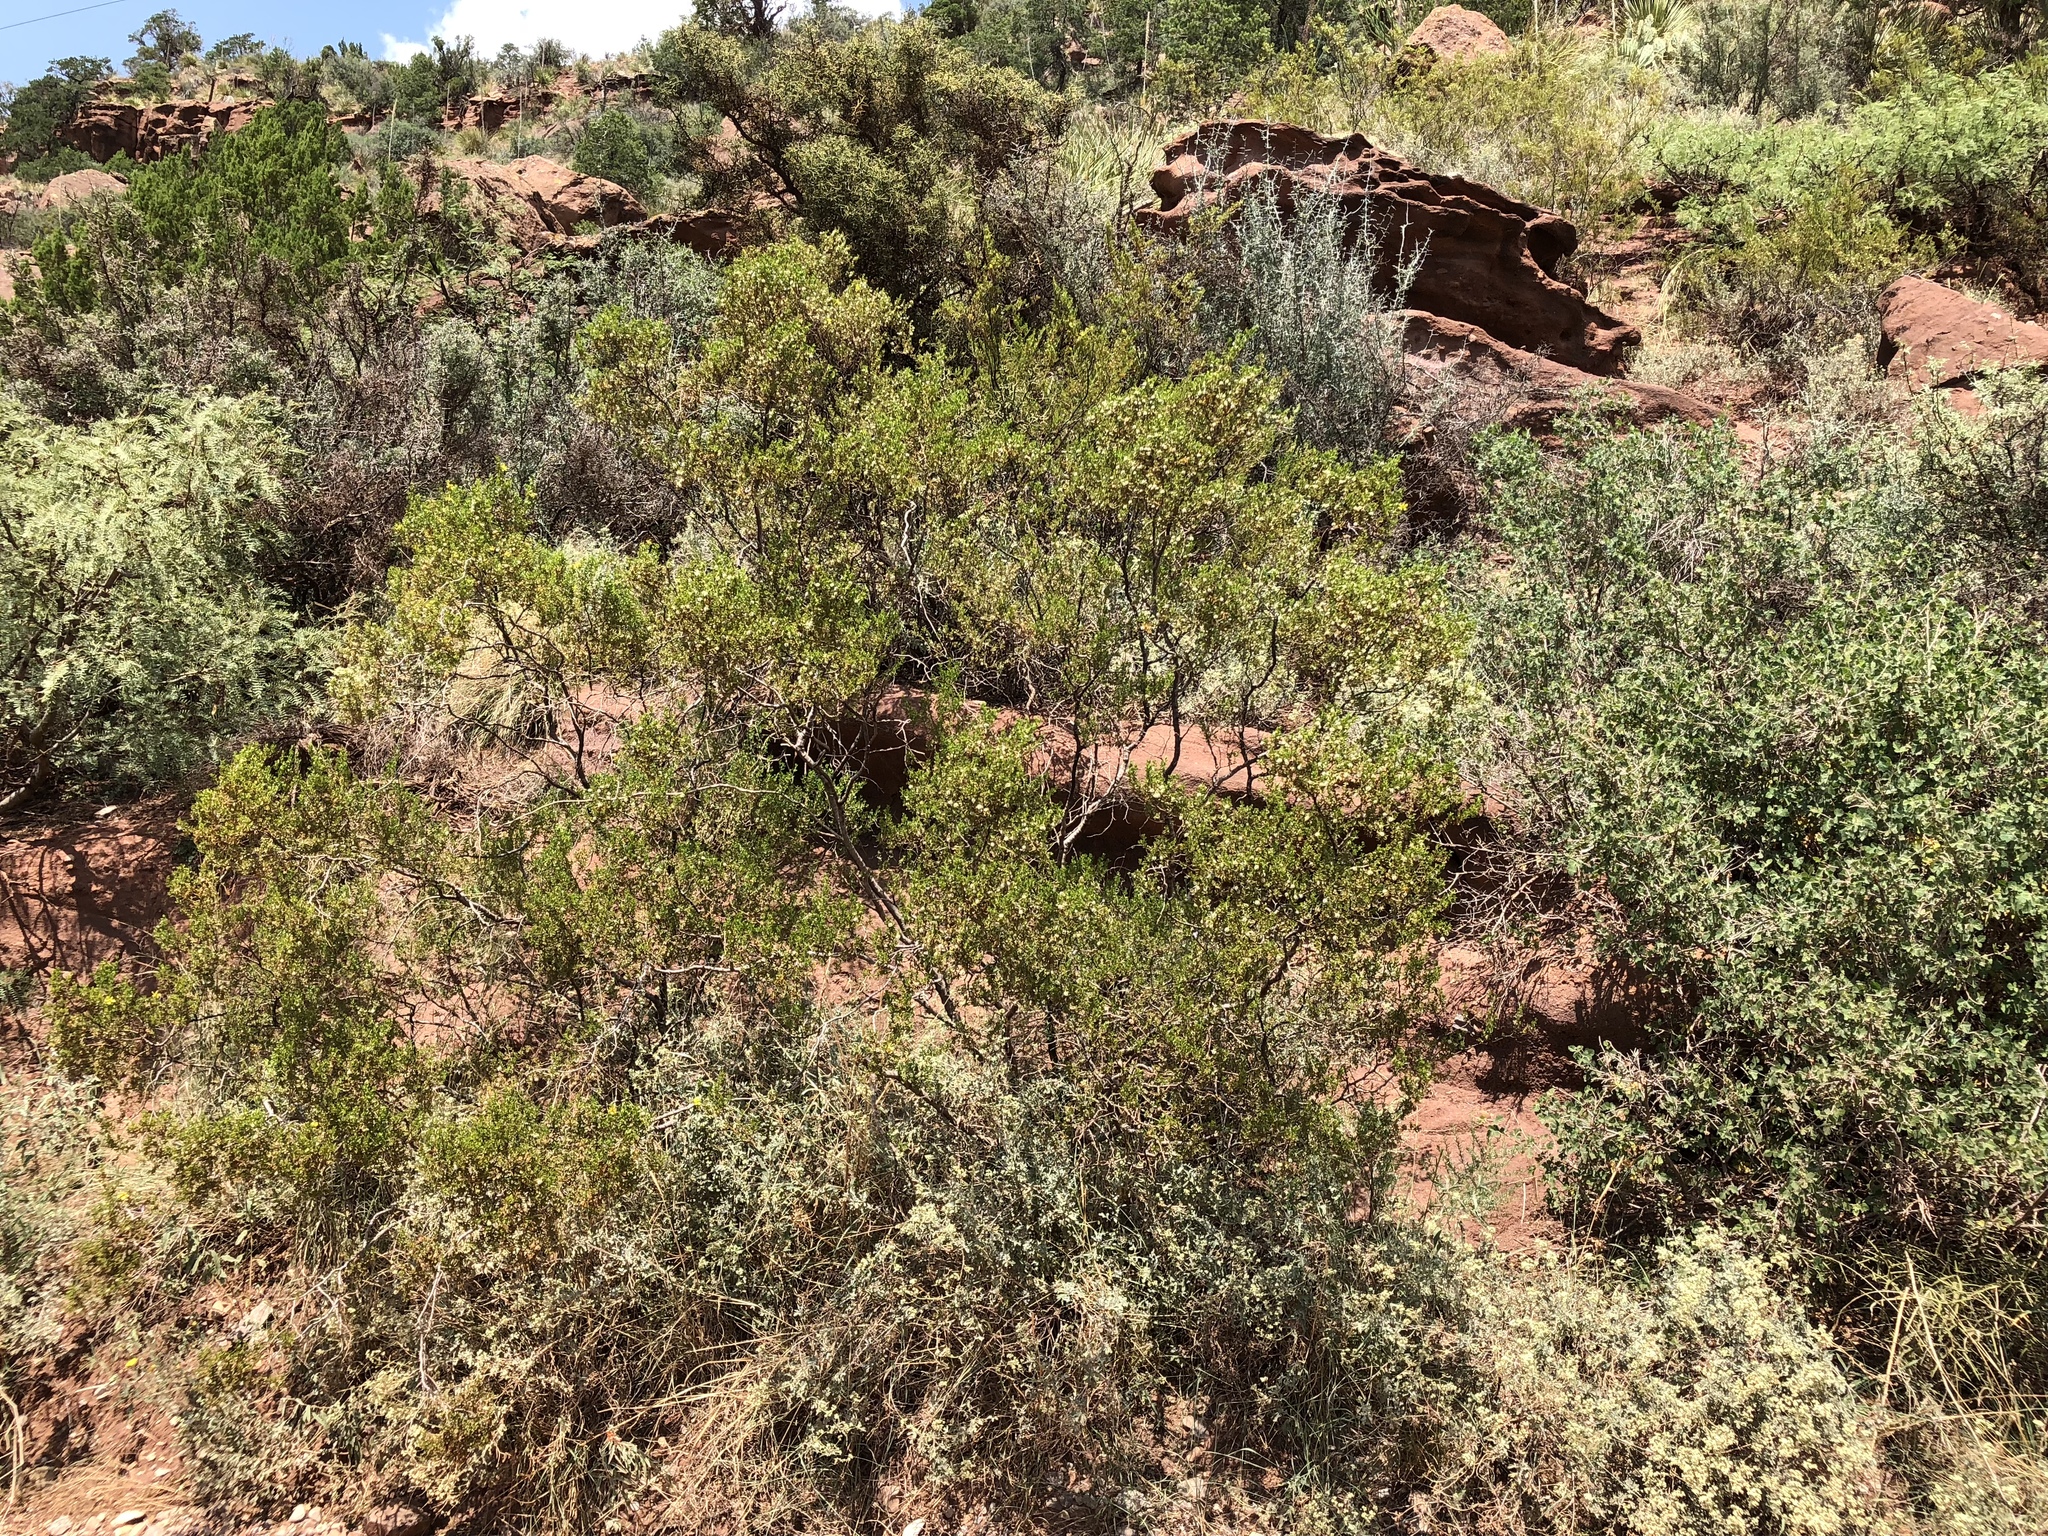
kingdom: Plantae
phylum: Tracheophyta
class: Magnoliopsida
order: Zygophyllales
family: Zygophyllaceae
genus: Larrea
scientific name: Larrea tridentata
